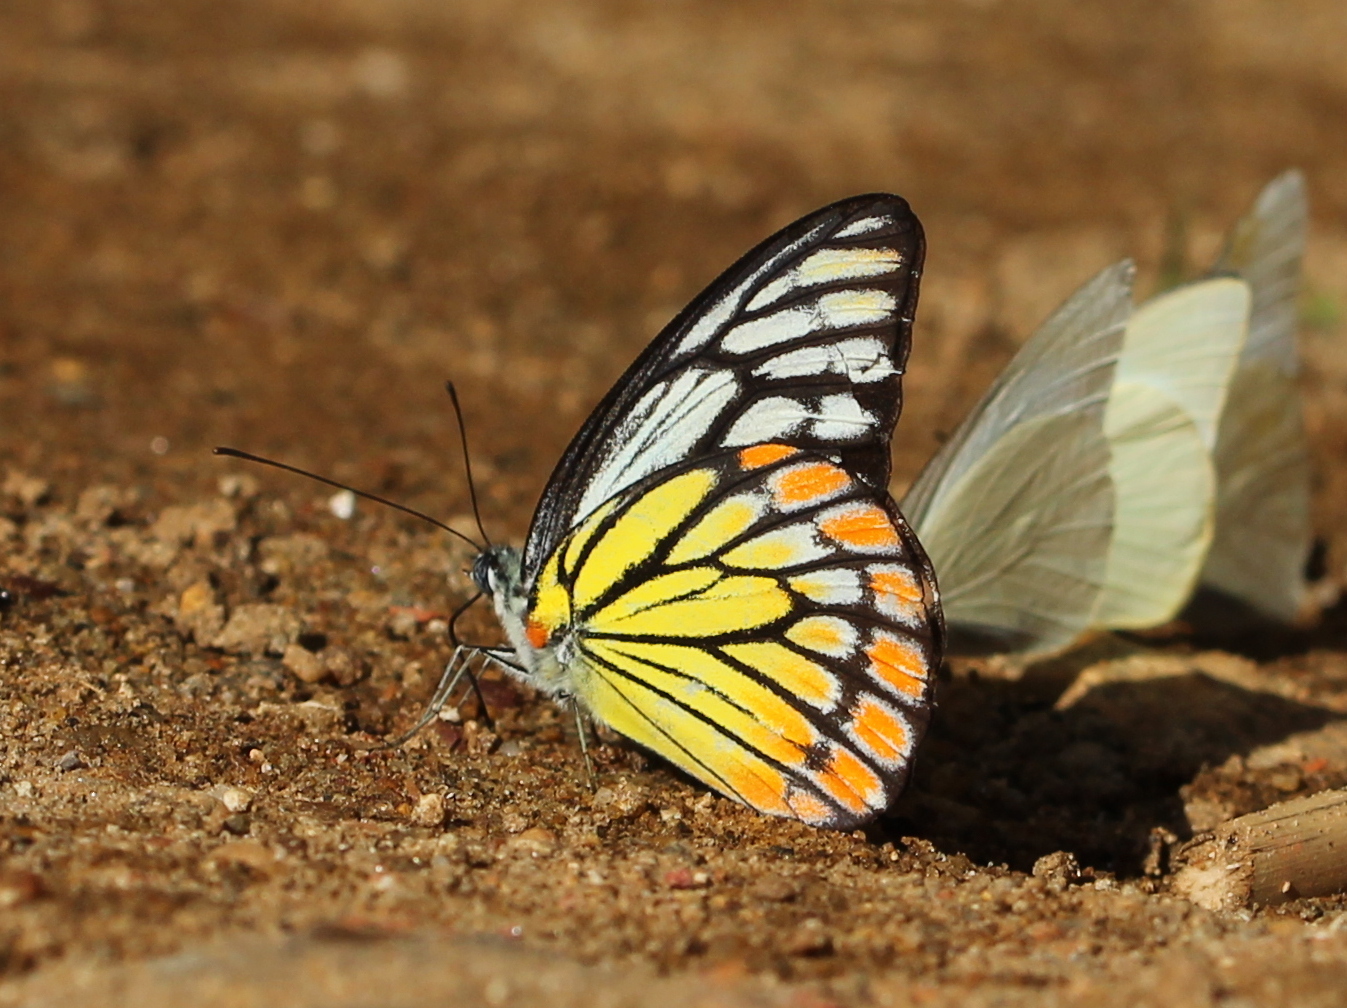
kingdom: Animalia
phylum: Arthropoda
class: Insecta
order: Lepidoptera
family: Pieridae
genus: Prioneris
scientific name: Prioneris sita
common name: Painted sawtooth
